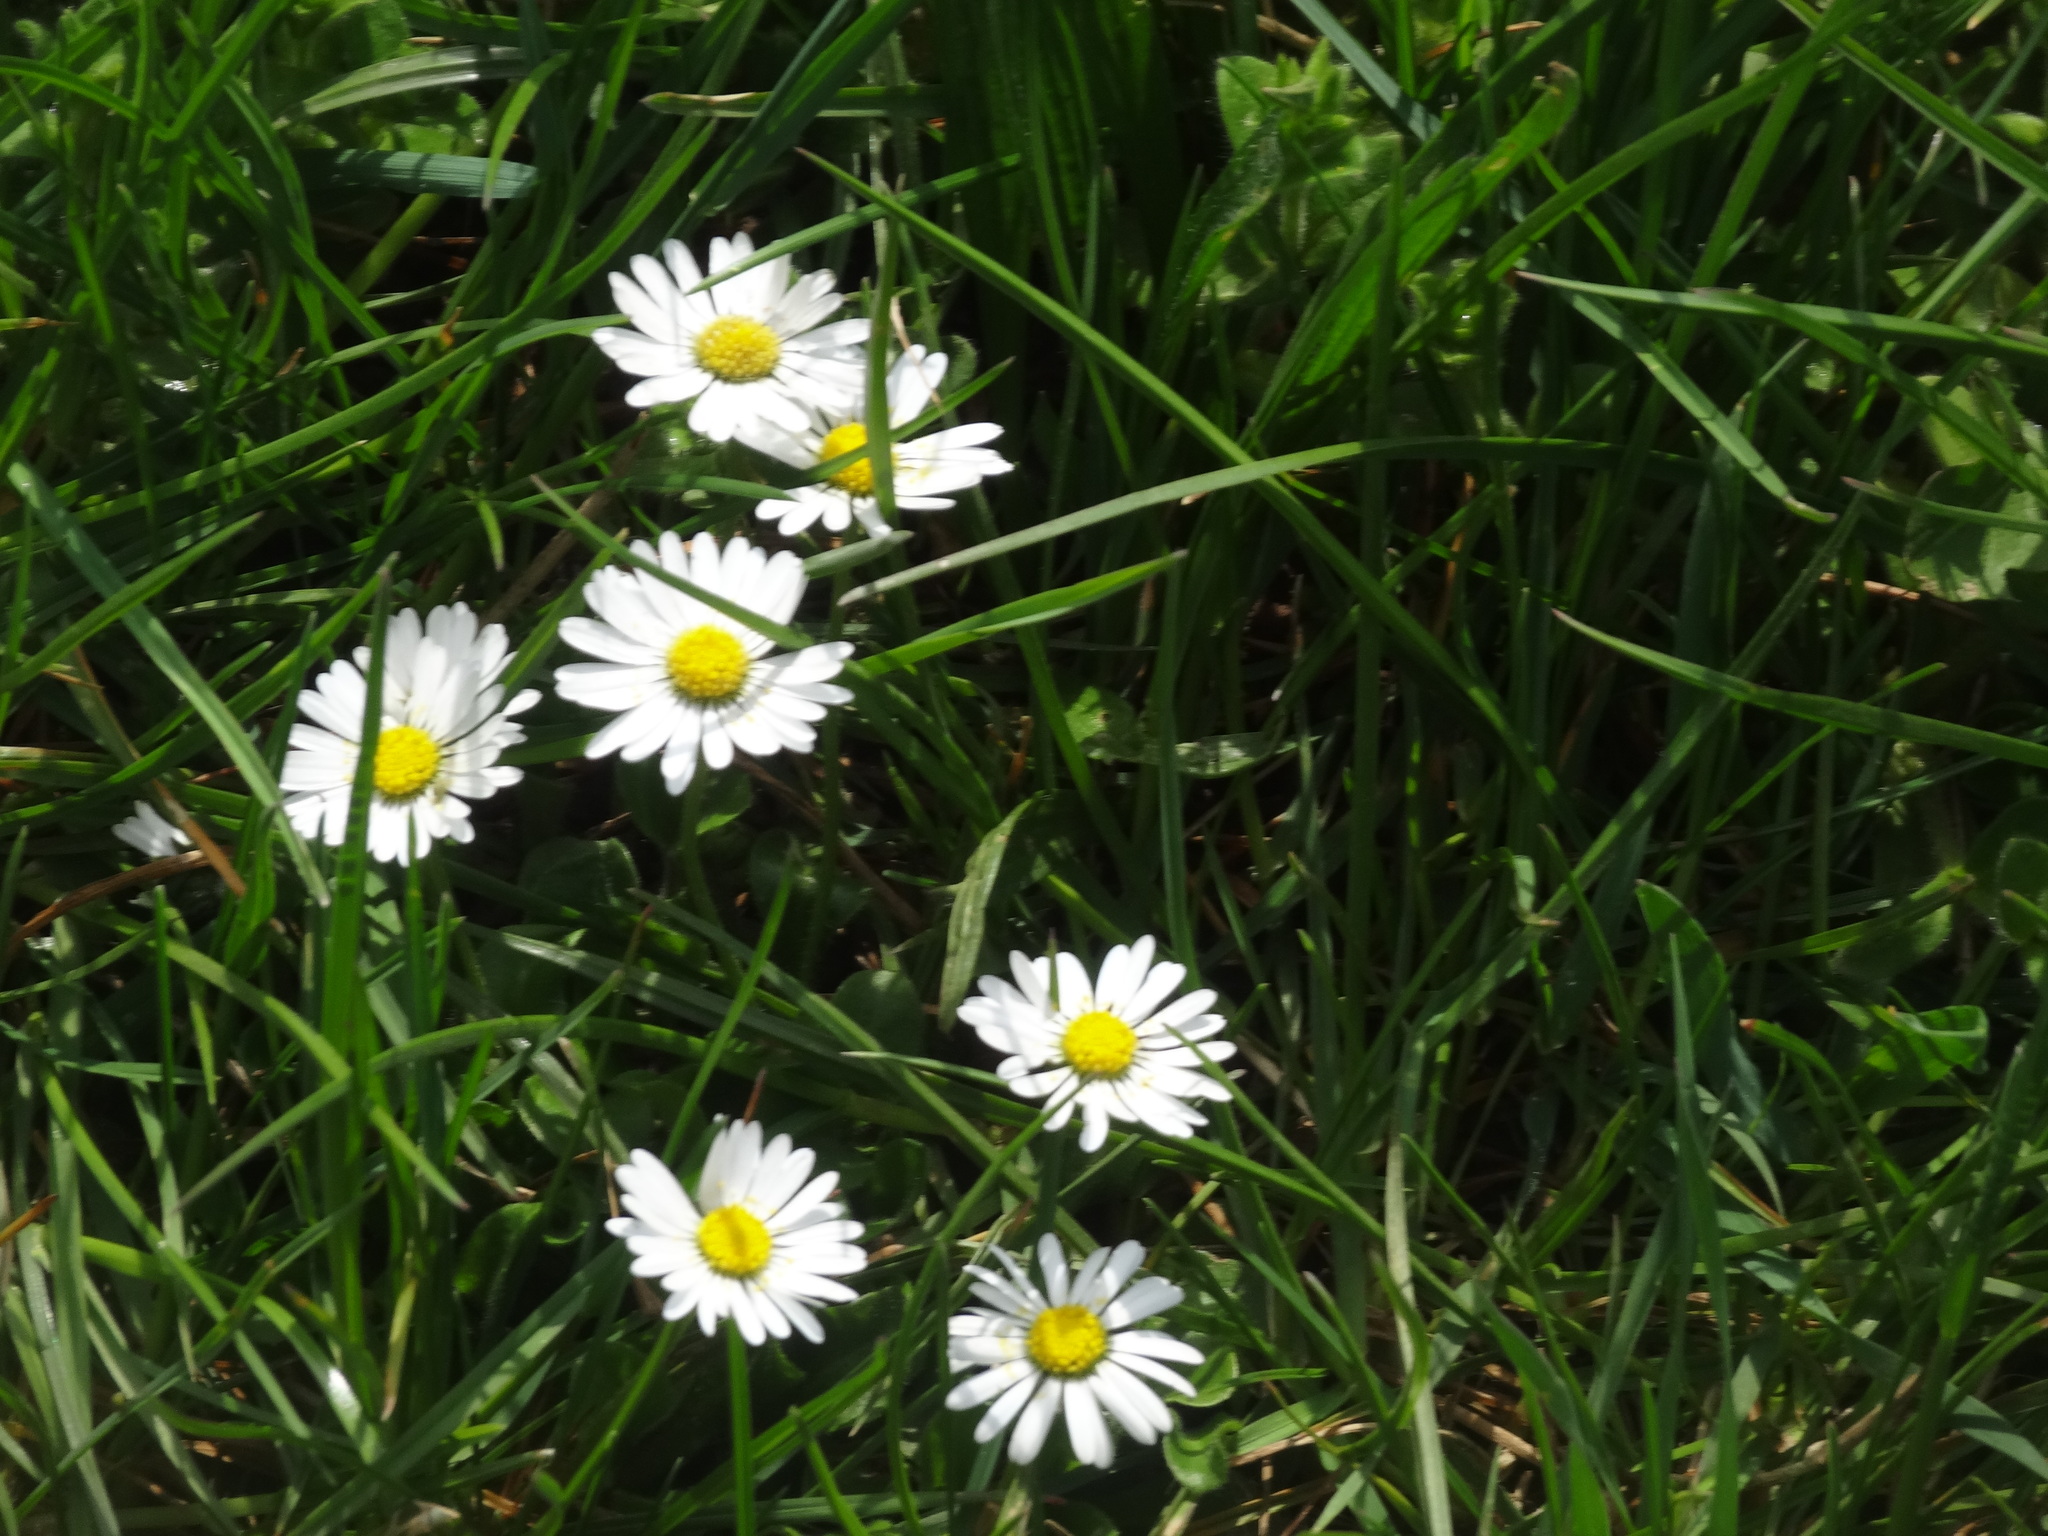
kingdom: Plantae
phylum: Tracheophyta
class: Magnoliopsida
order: Asterales
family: Asteraceae
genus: Bellis
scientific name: Bellis perennis
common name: Lawndaisy
